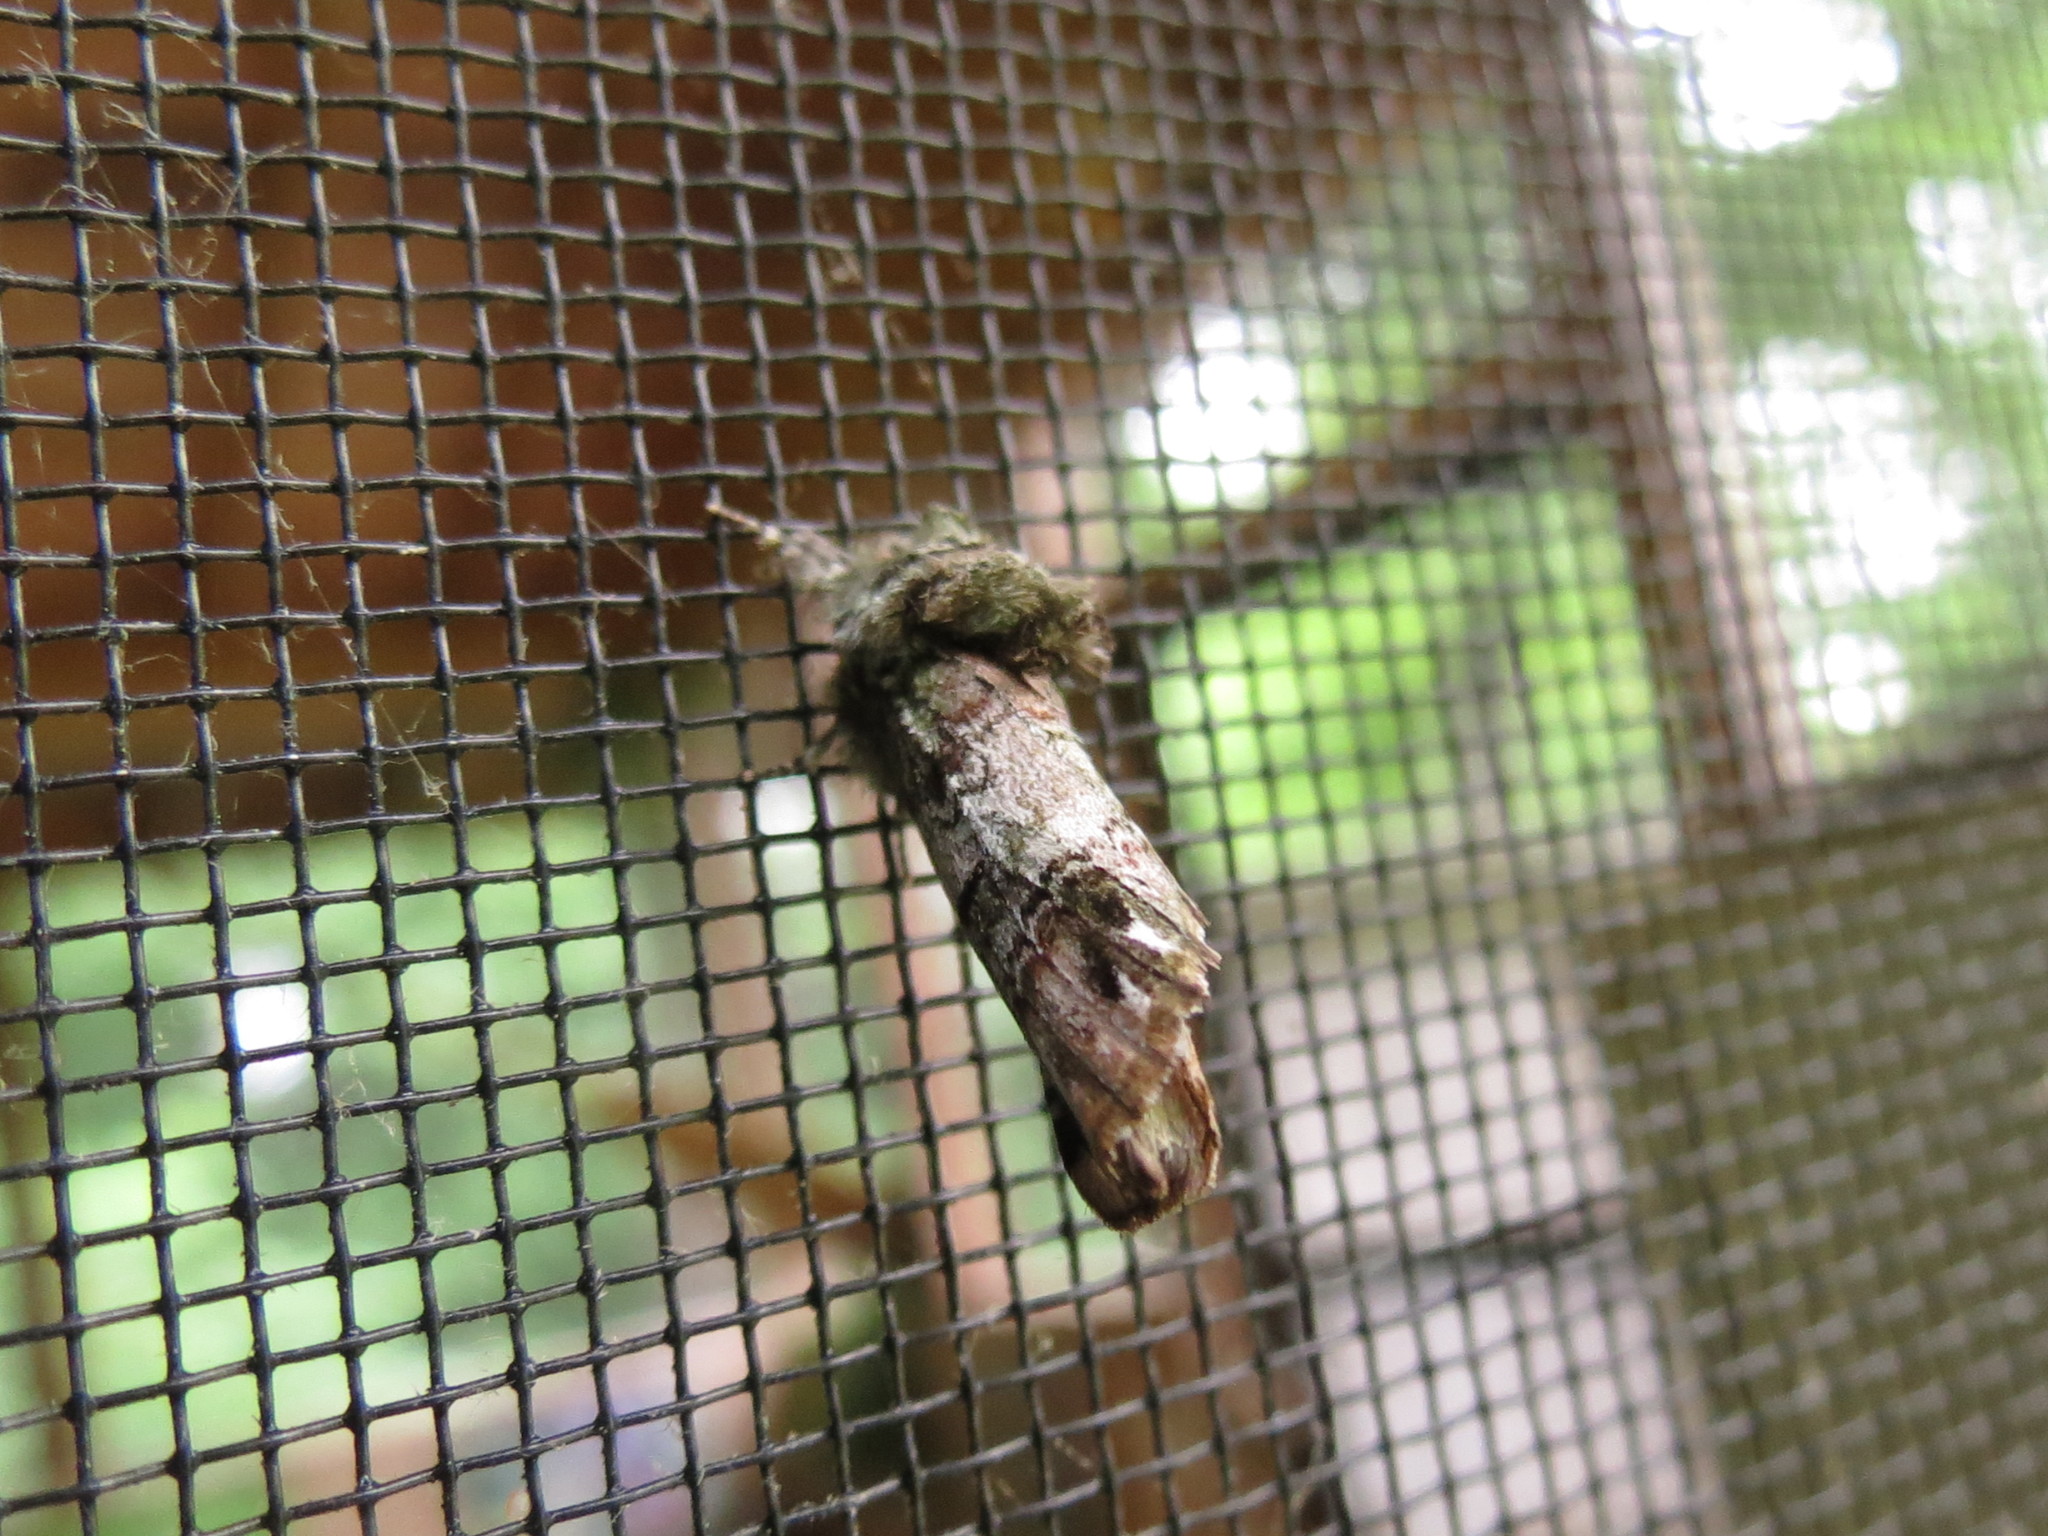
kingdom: Animalia
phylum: Arthropoda
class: Insecta
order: Lepidoptera
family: Notodontidae
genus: Schizura
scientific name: Schizura
